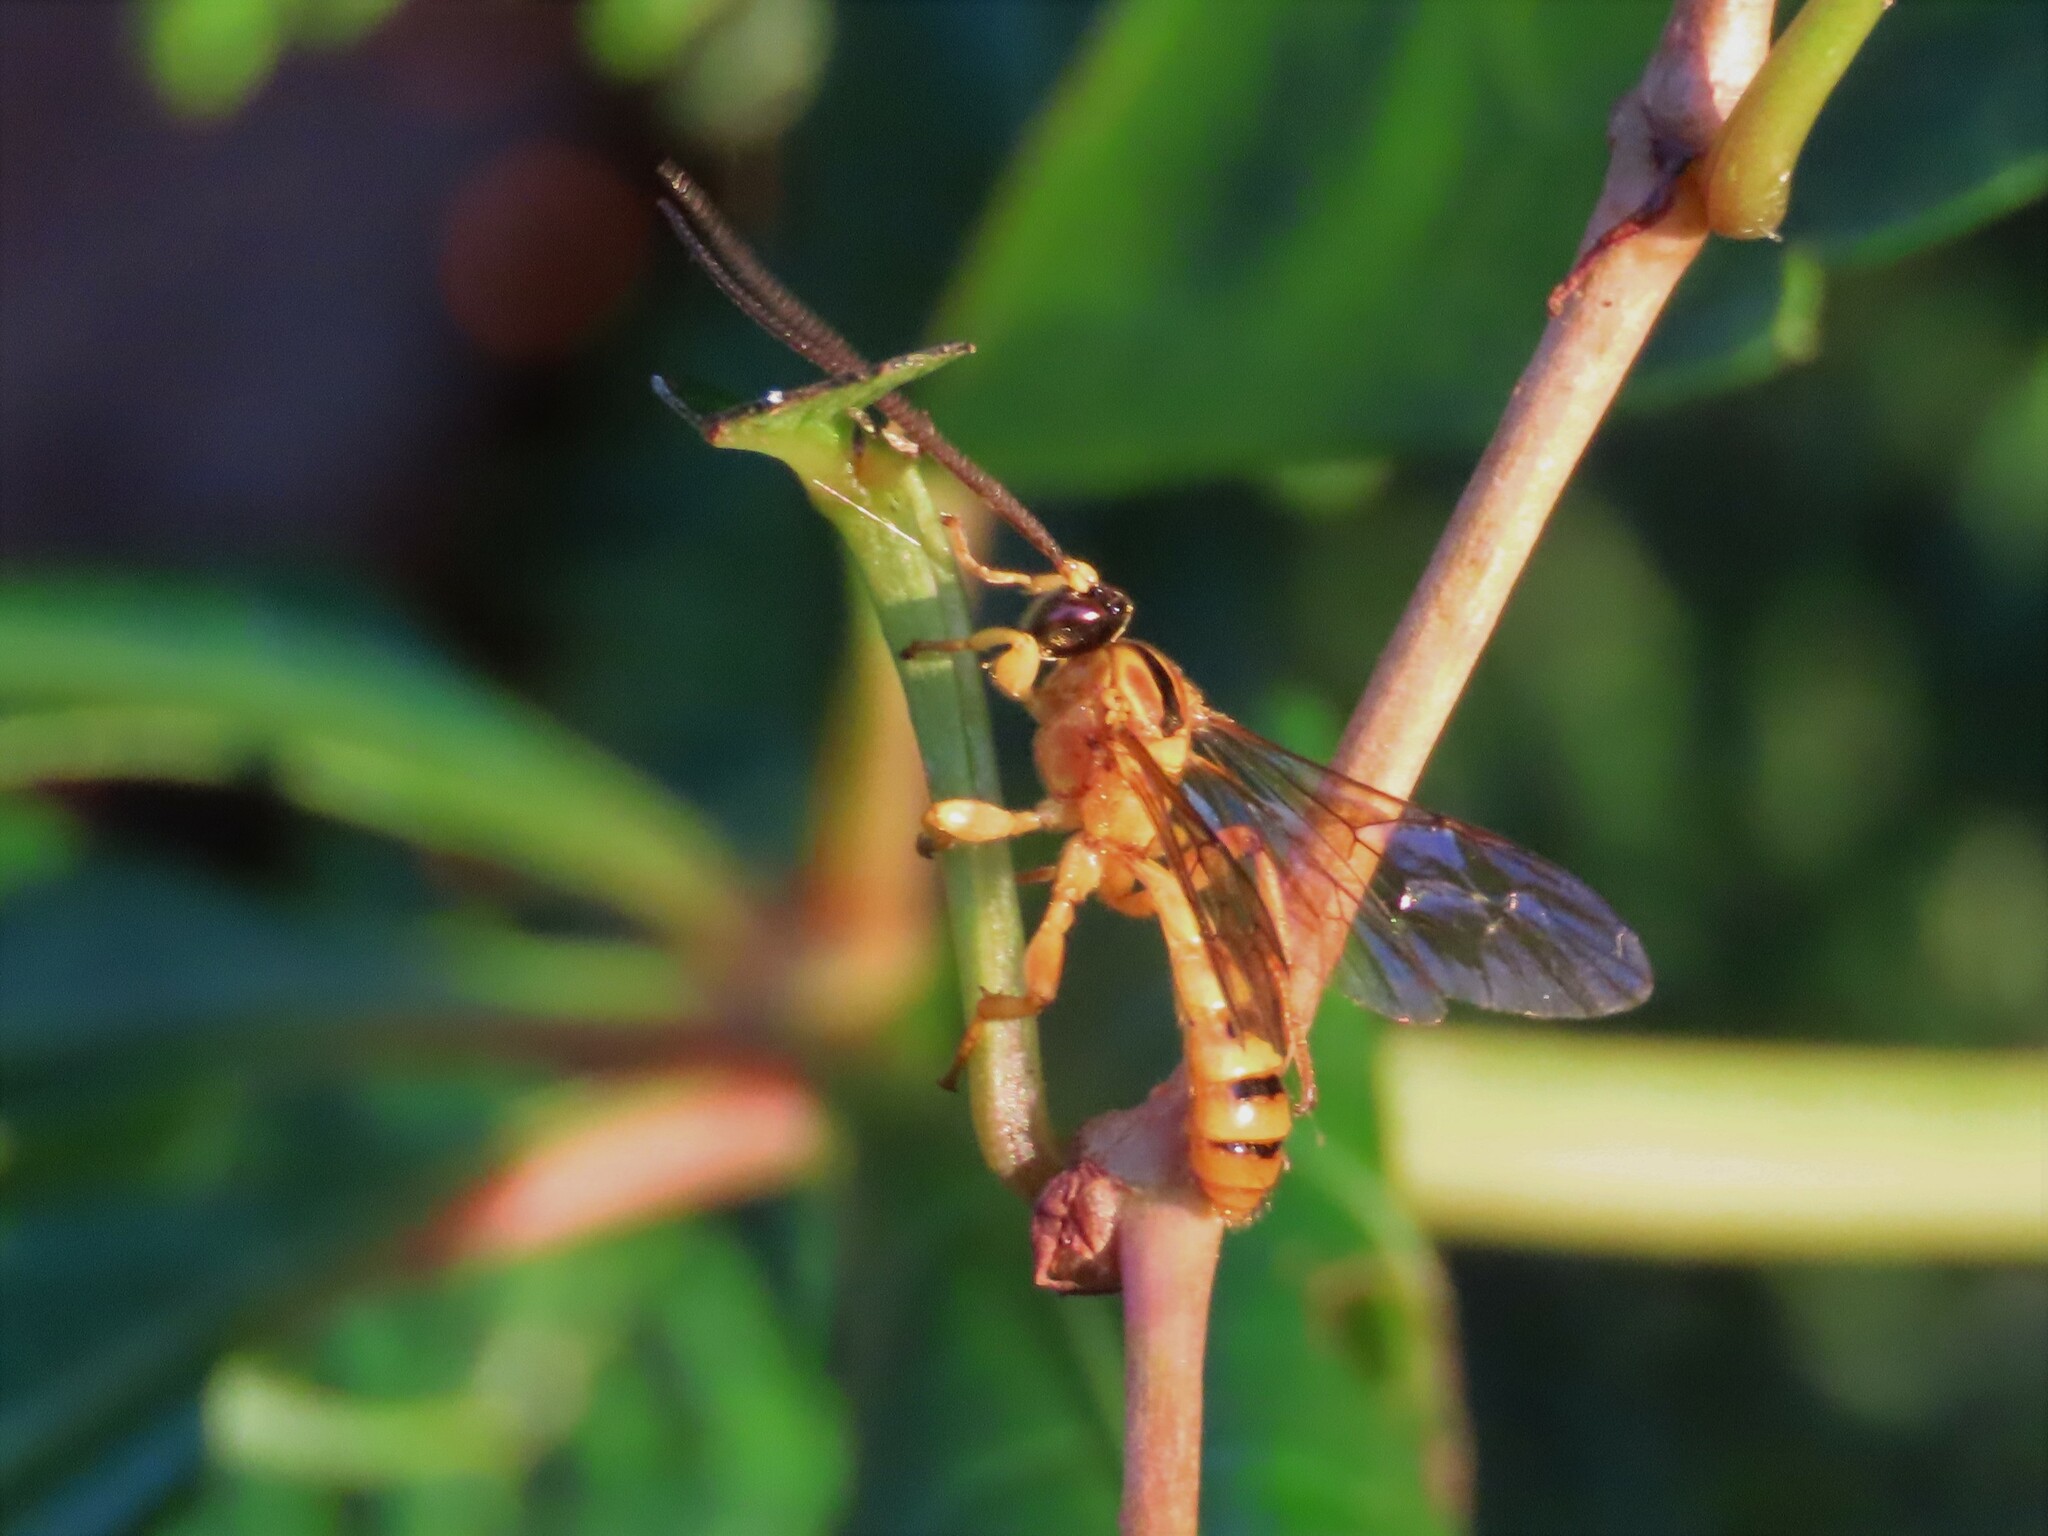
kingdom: Animalia
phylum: Arthropoda
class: Insecta
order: Hymenoptera
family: Ichneumonidae
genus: Colpotrochia
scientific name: Colpotrochia fultoni
